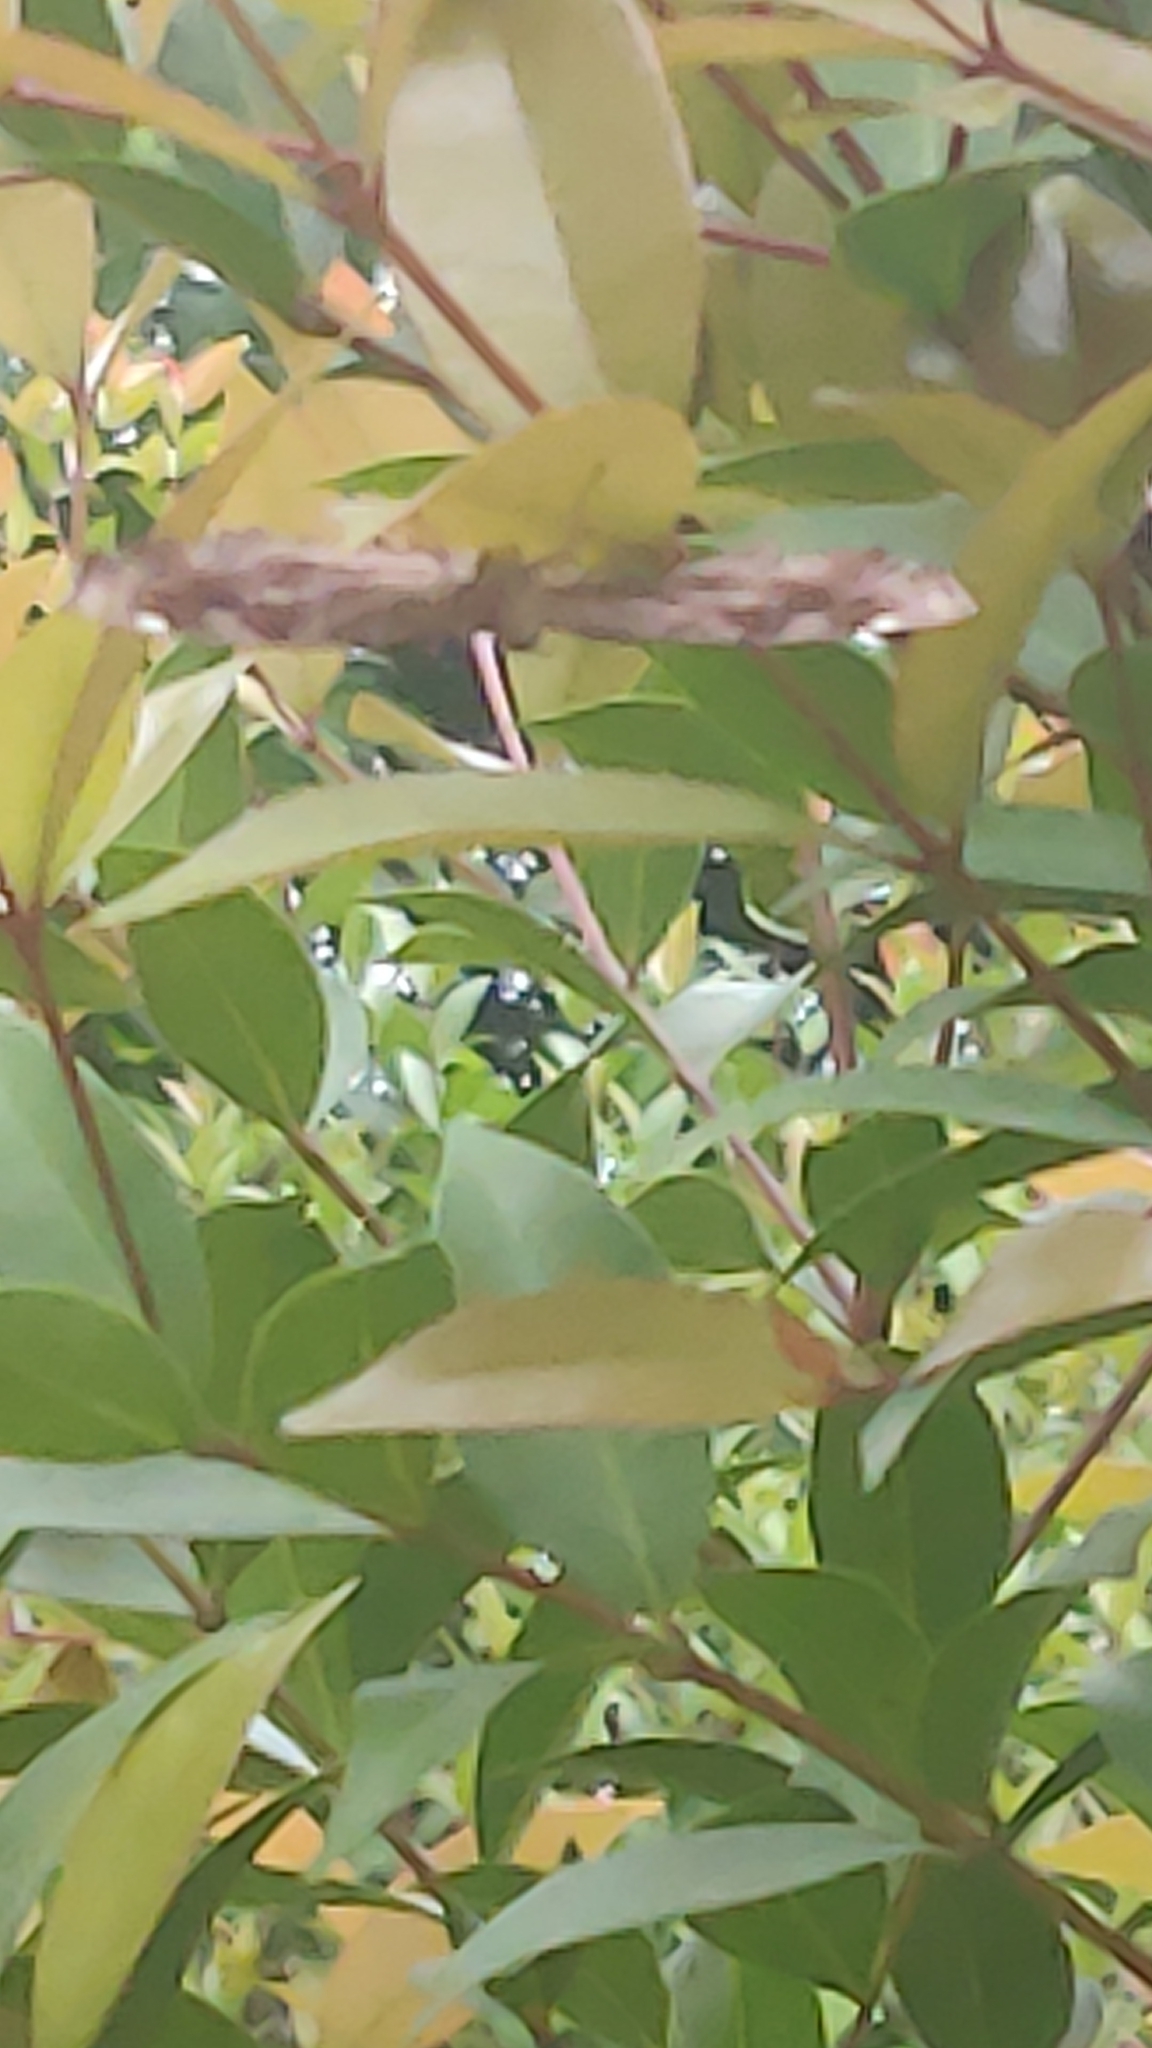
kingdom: Animalia
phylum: Arthropoda
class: Insecta
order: Lepidoptera
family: Nymphalidae
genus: Ariadne
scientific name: Ariadne ariadne
